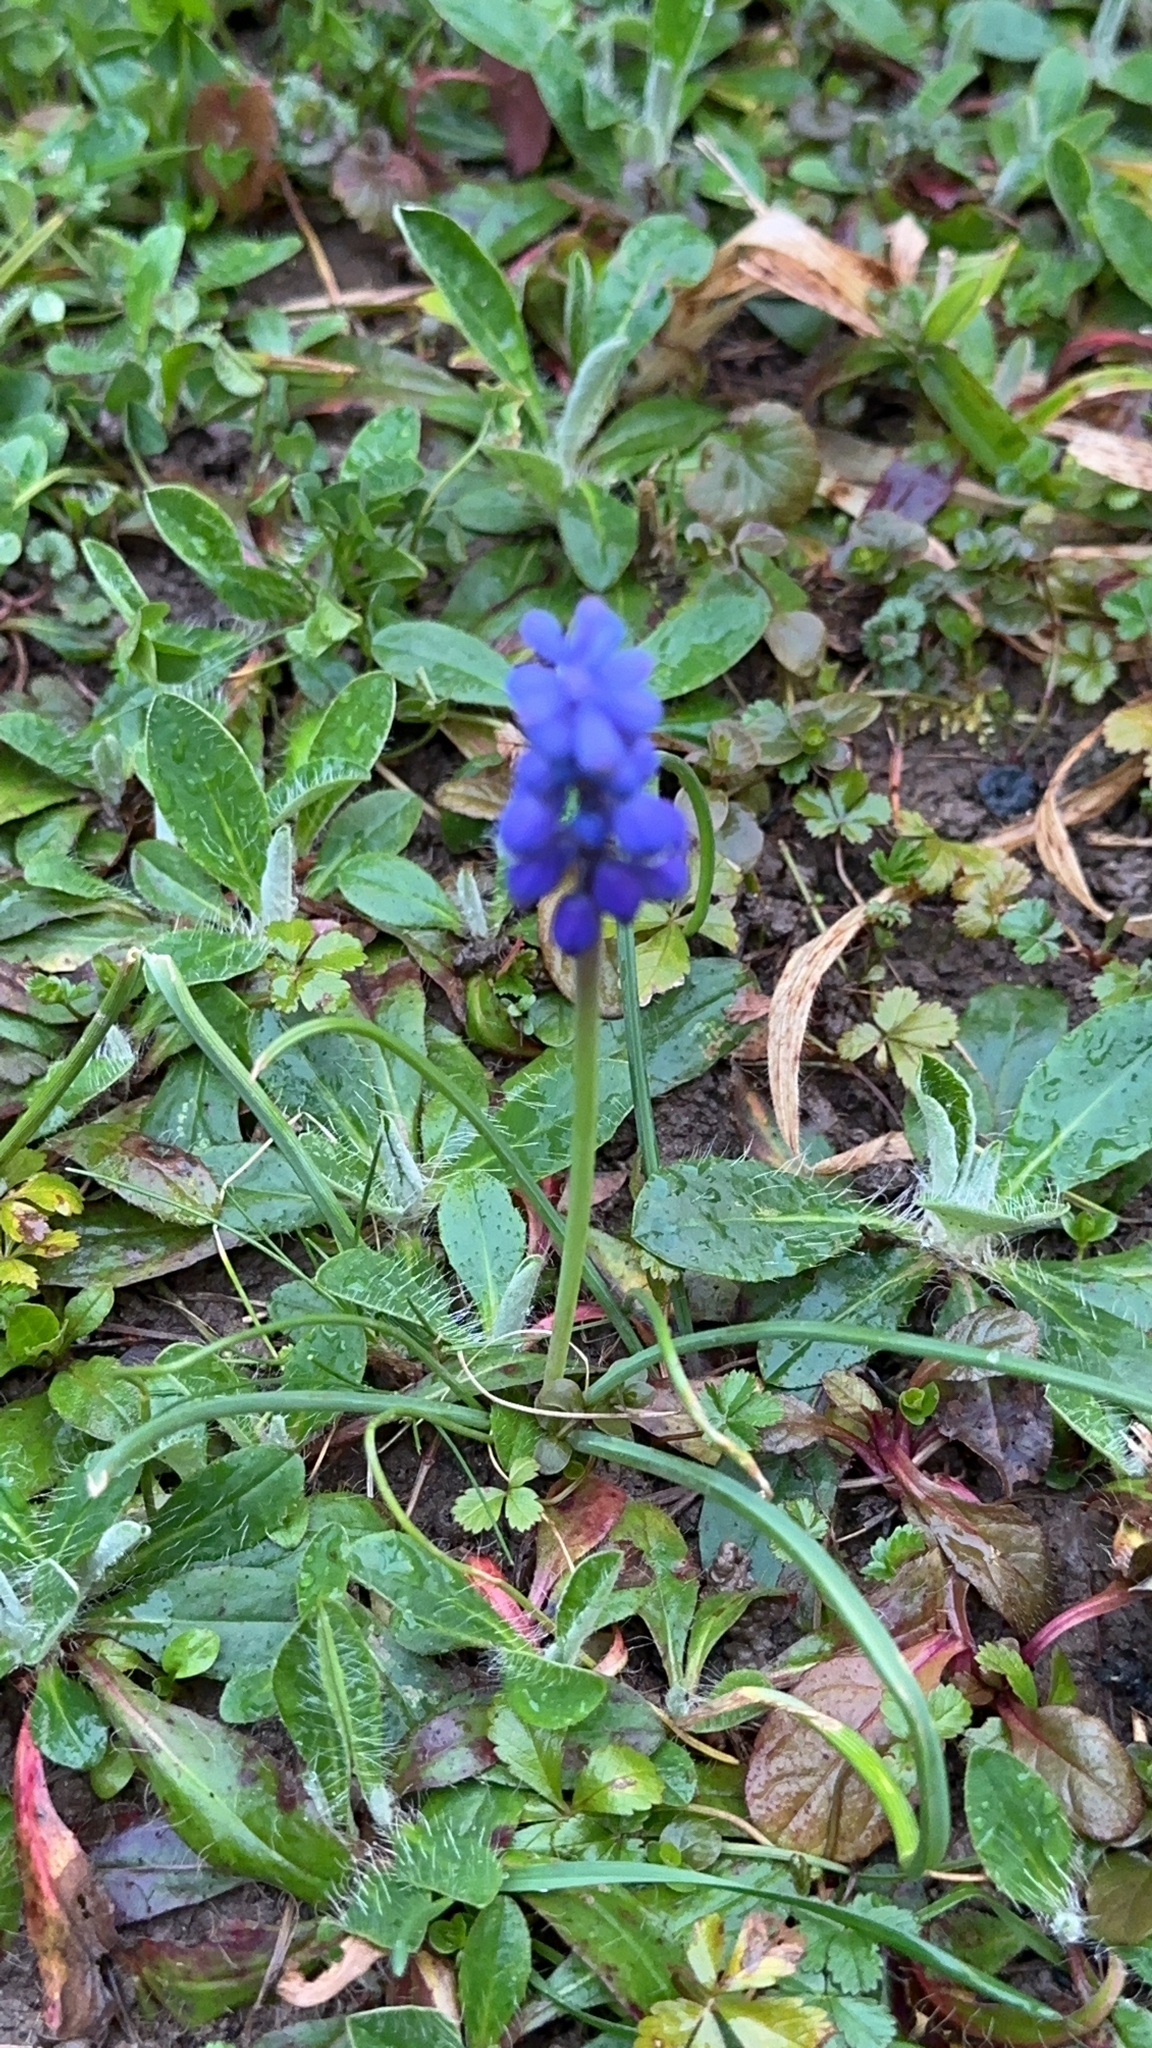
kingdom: Plantae
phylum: Tracheophyta
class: Liliopsida
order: Asparagales
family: Asparagaceae
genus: Muscari
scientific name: Muscari neglectum
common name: Grape-hyacinth
